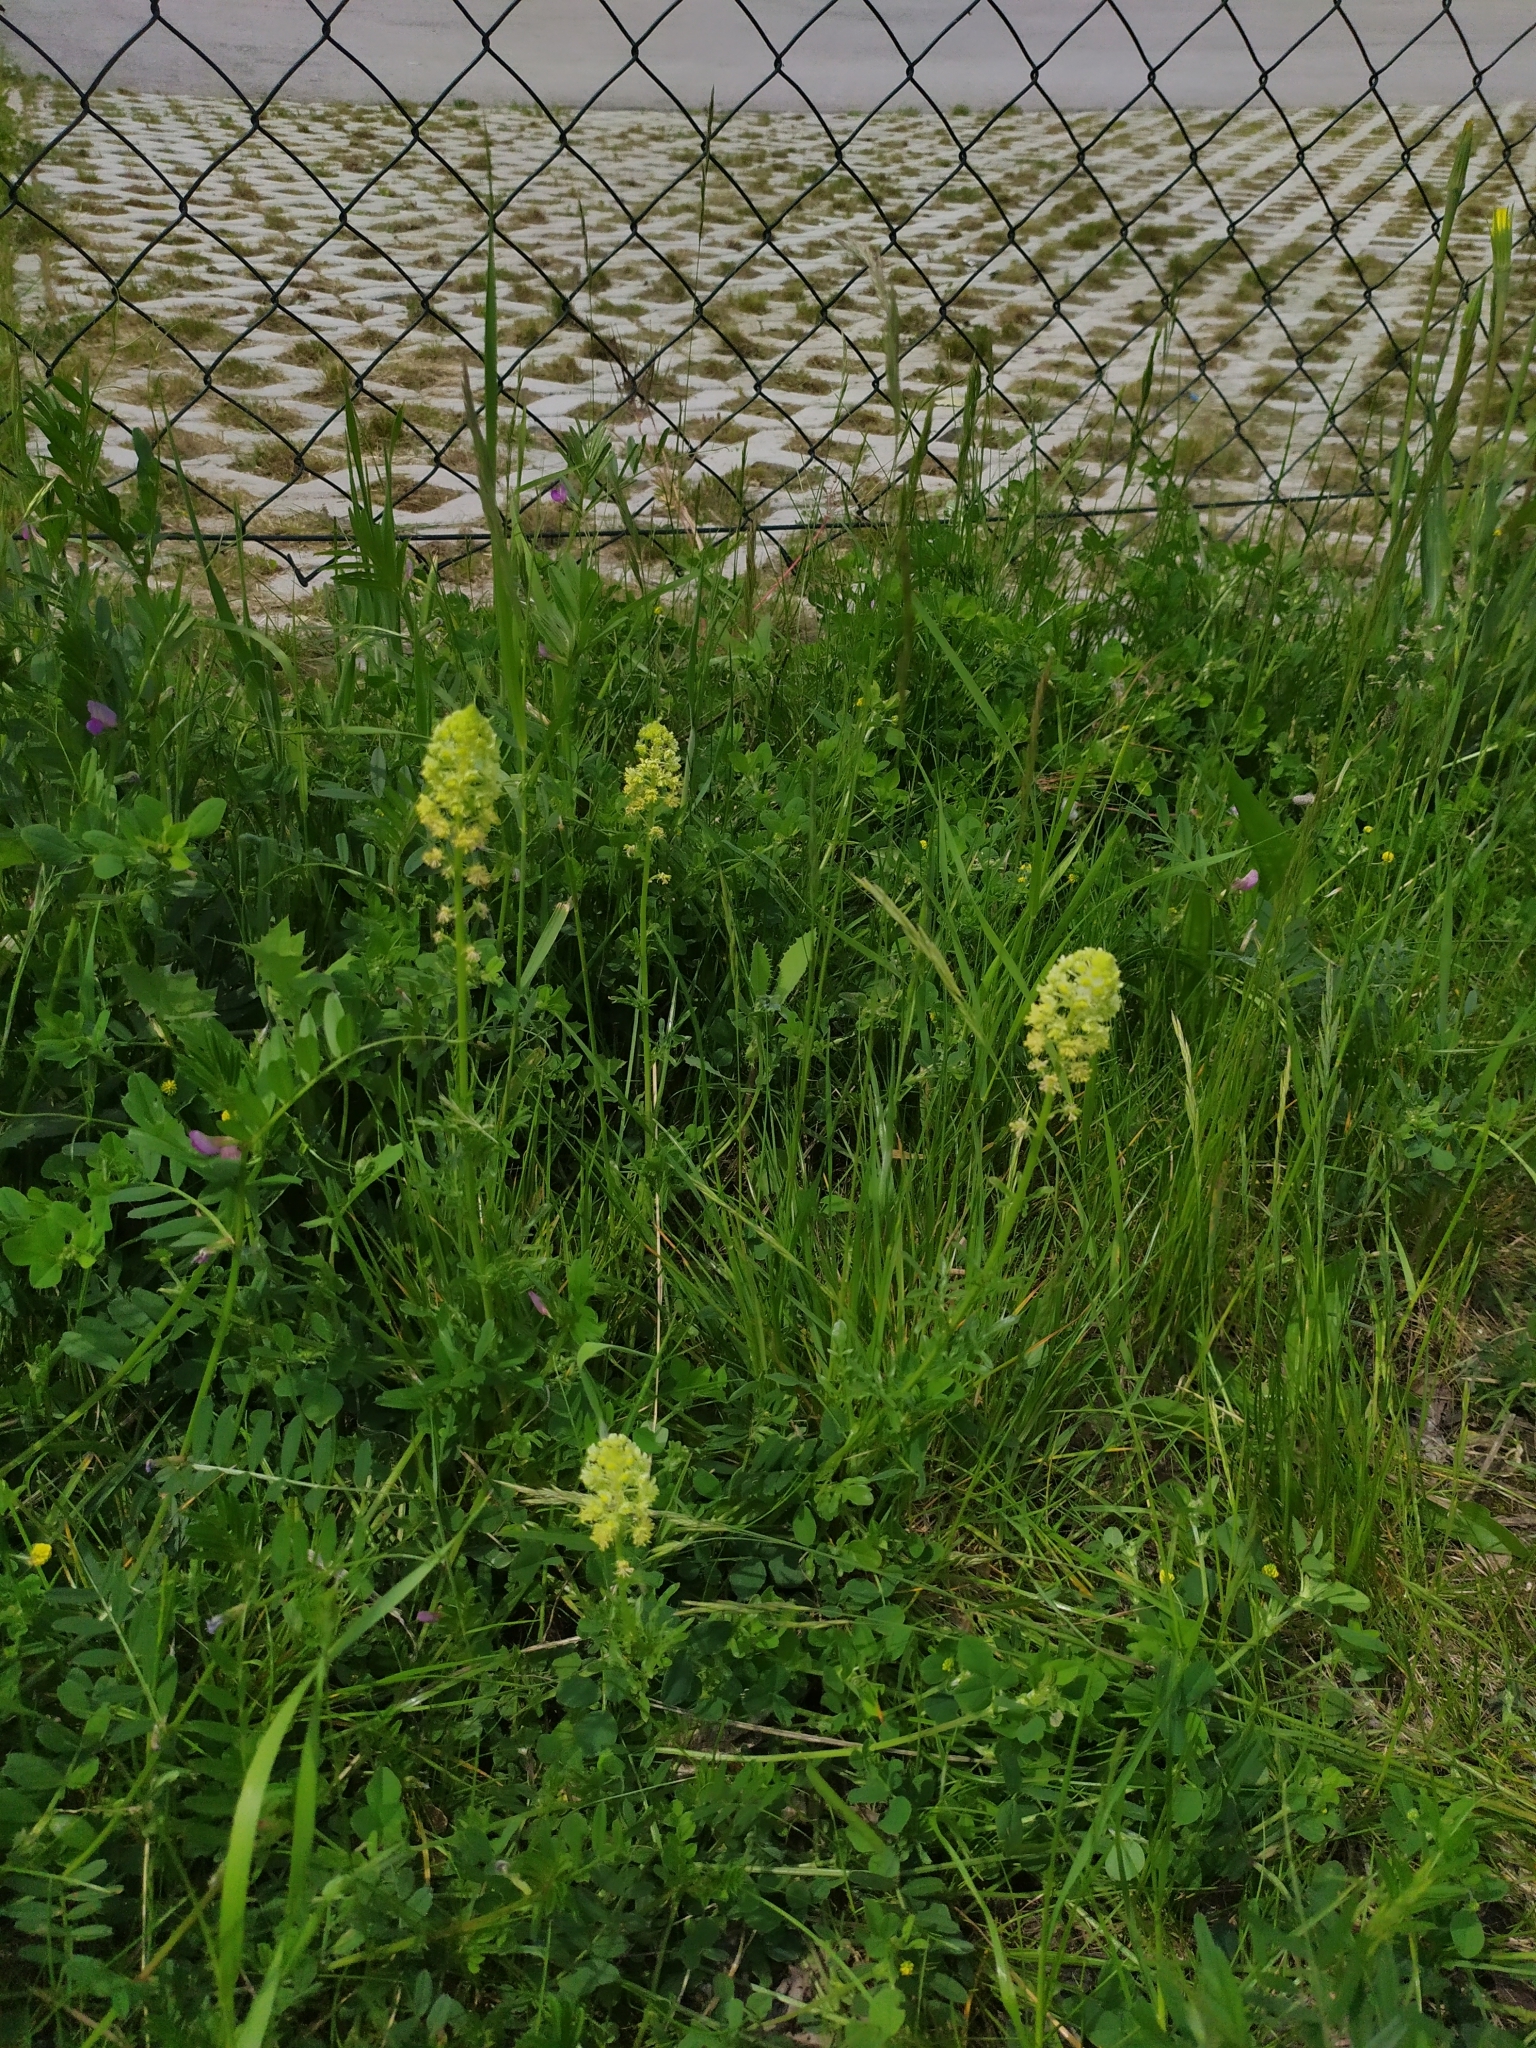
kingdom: Plantae
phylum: Tracheophyta
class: Magnoliopsida
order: Brassicales
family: Resedaceae
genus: Reseda
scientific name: Reseda lutea
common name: Wild mignonette
